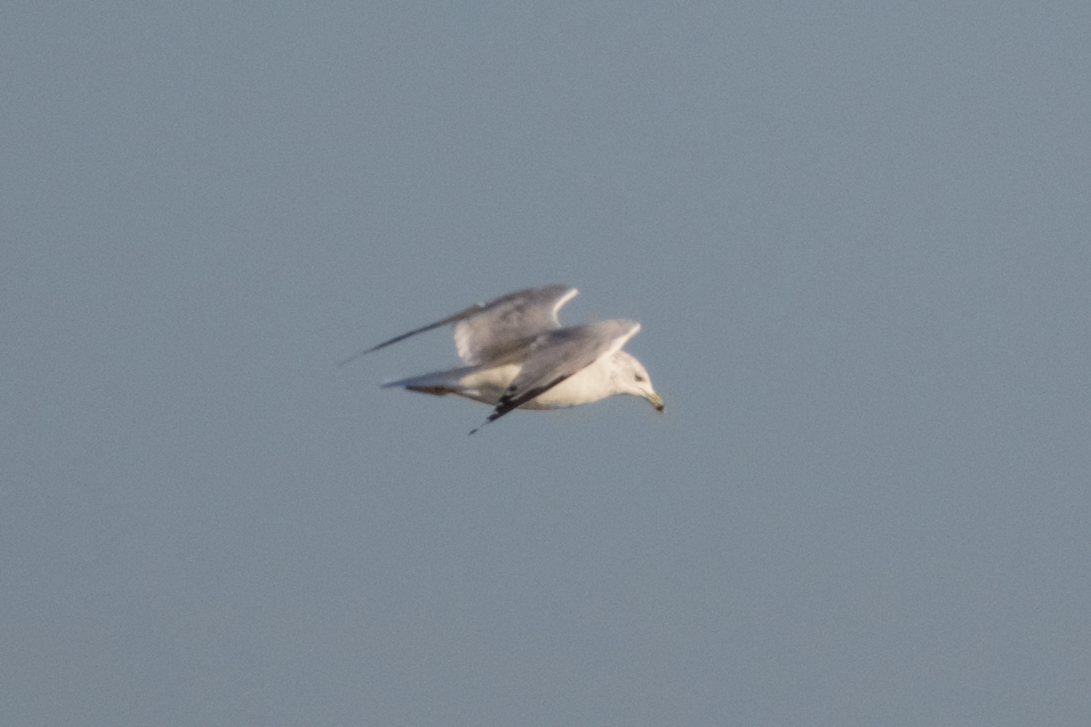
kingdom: Animalia
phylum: Chordata
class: Aves
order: Charadriiformes
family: Laridae
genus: Larus
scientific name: Larus delawarensis
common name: Ring-billed gull
